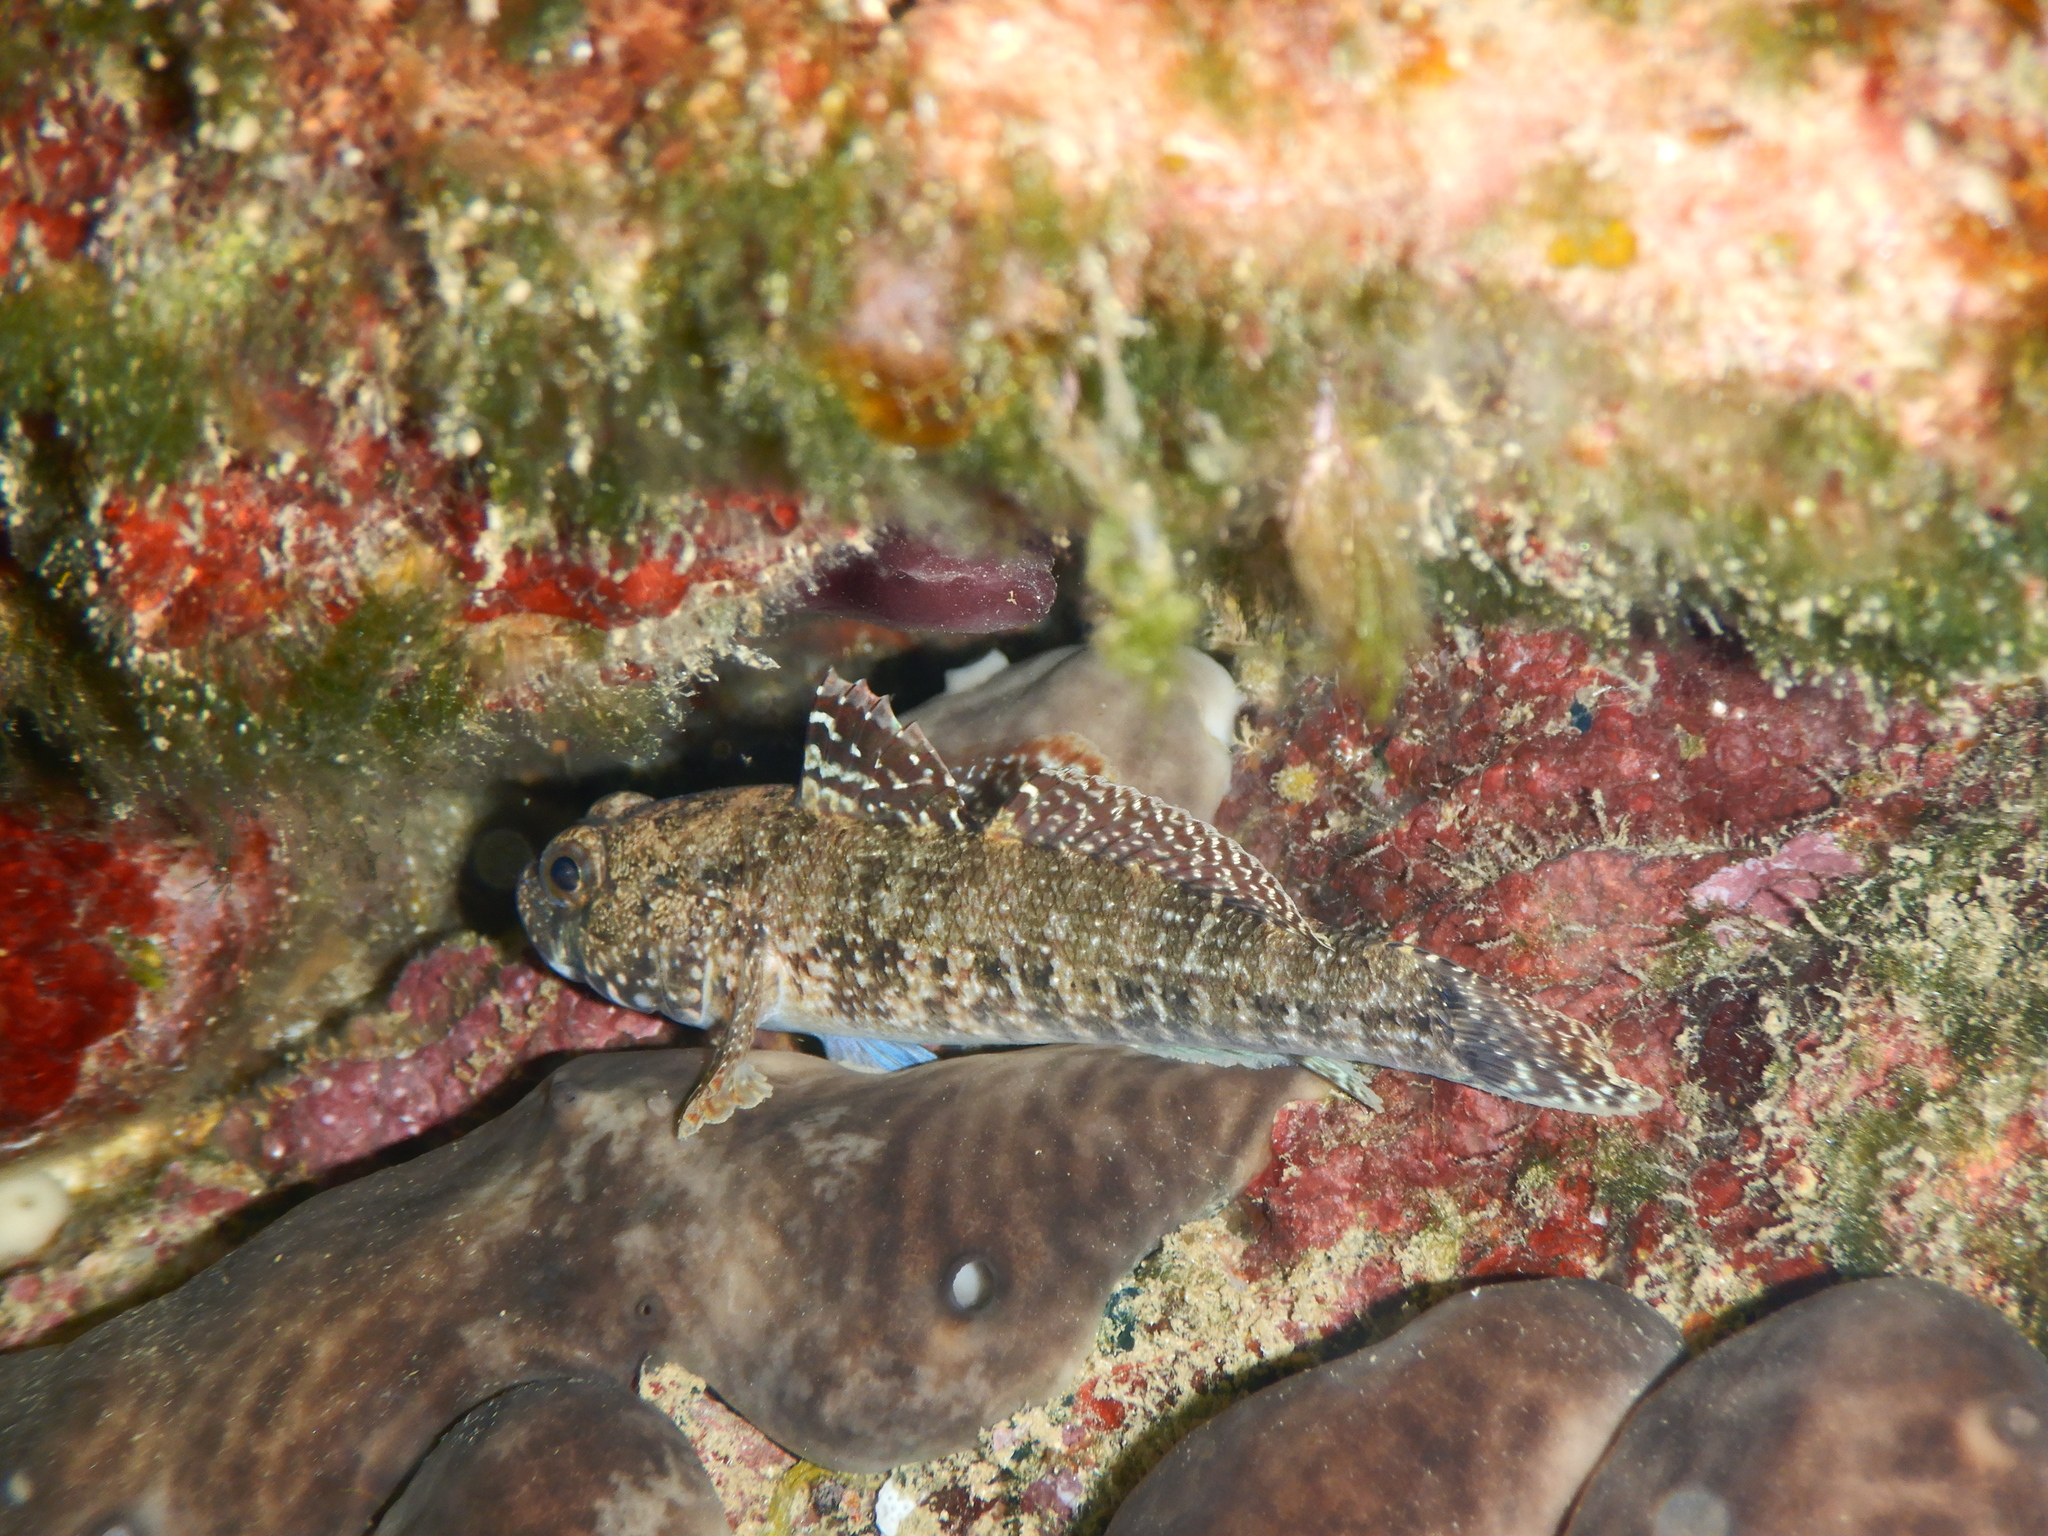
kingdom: Animalia
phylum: Chordata
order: Perciformes
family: Gobiidae
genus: Gobius
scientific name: Gobius paganellus
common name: Rock goby
